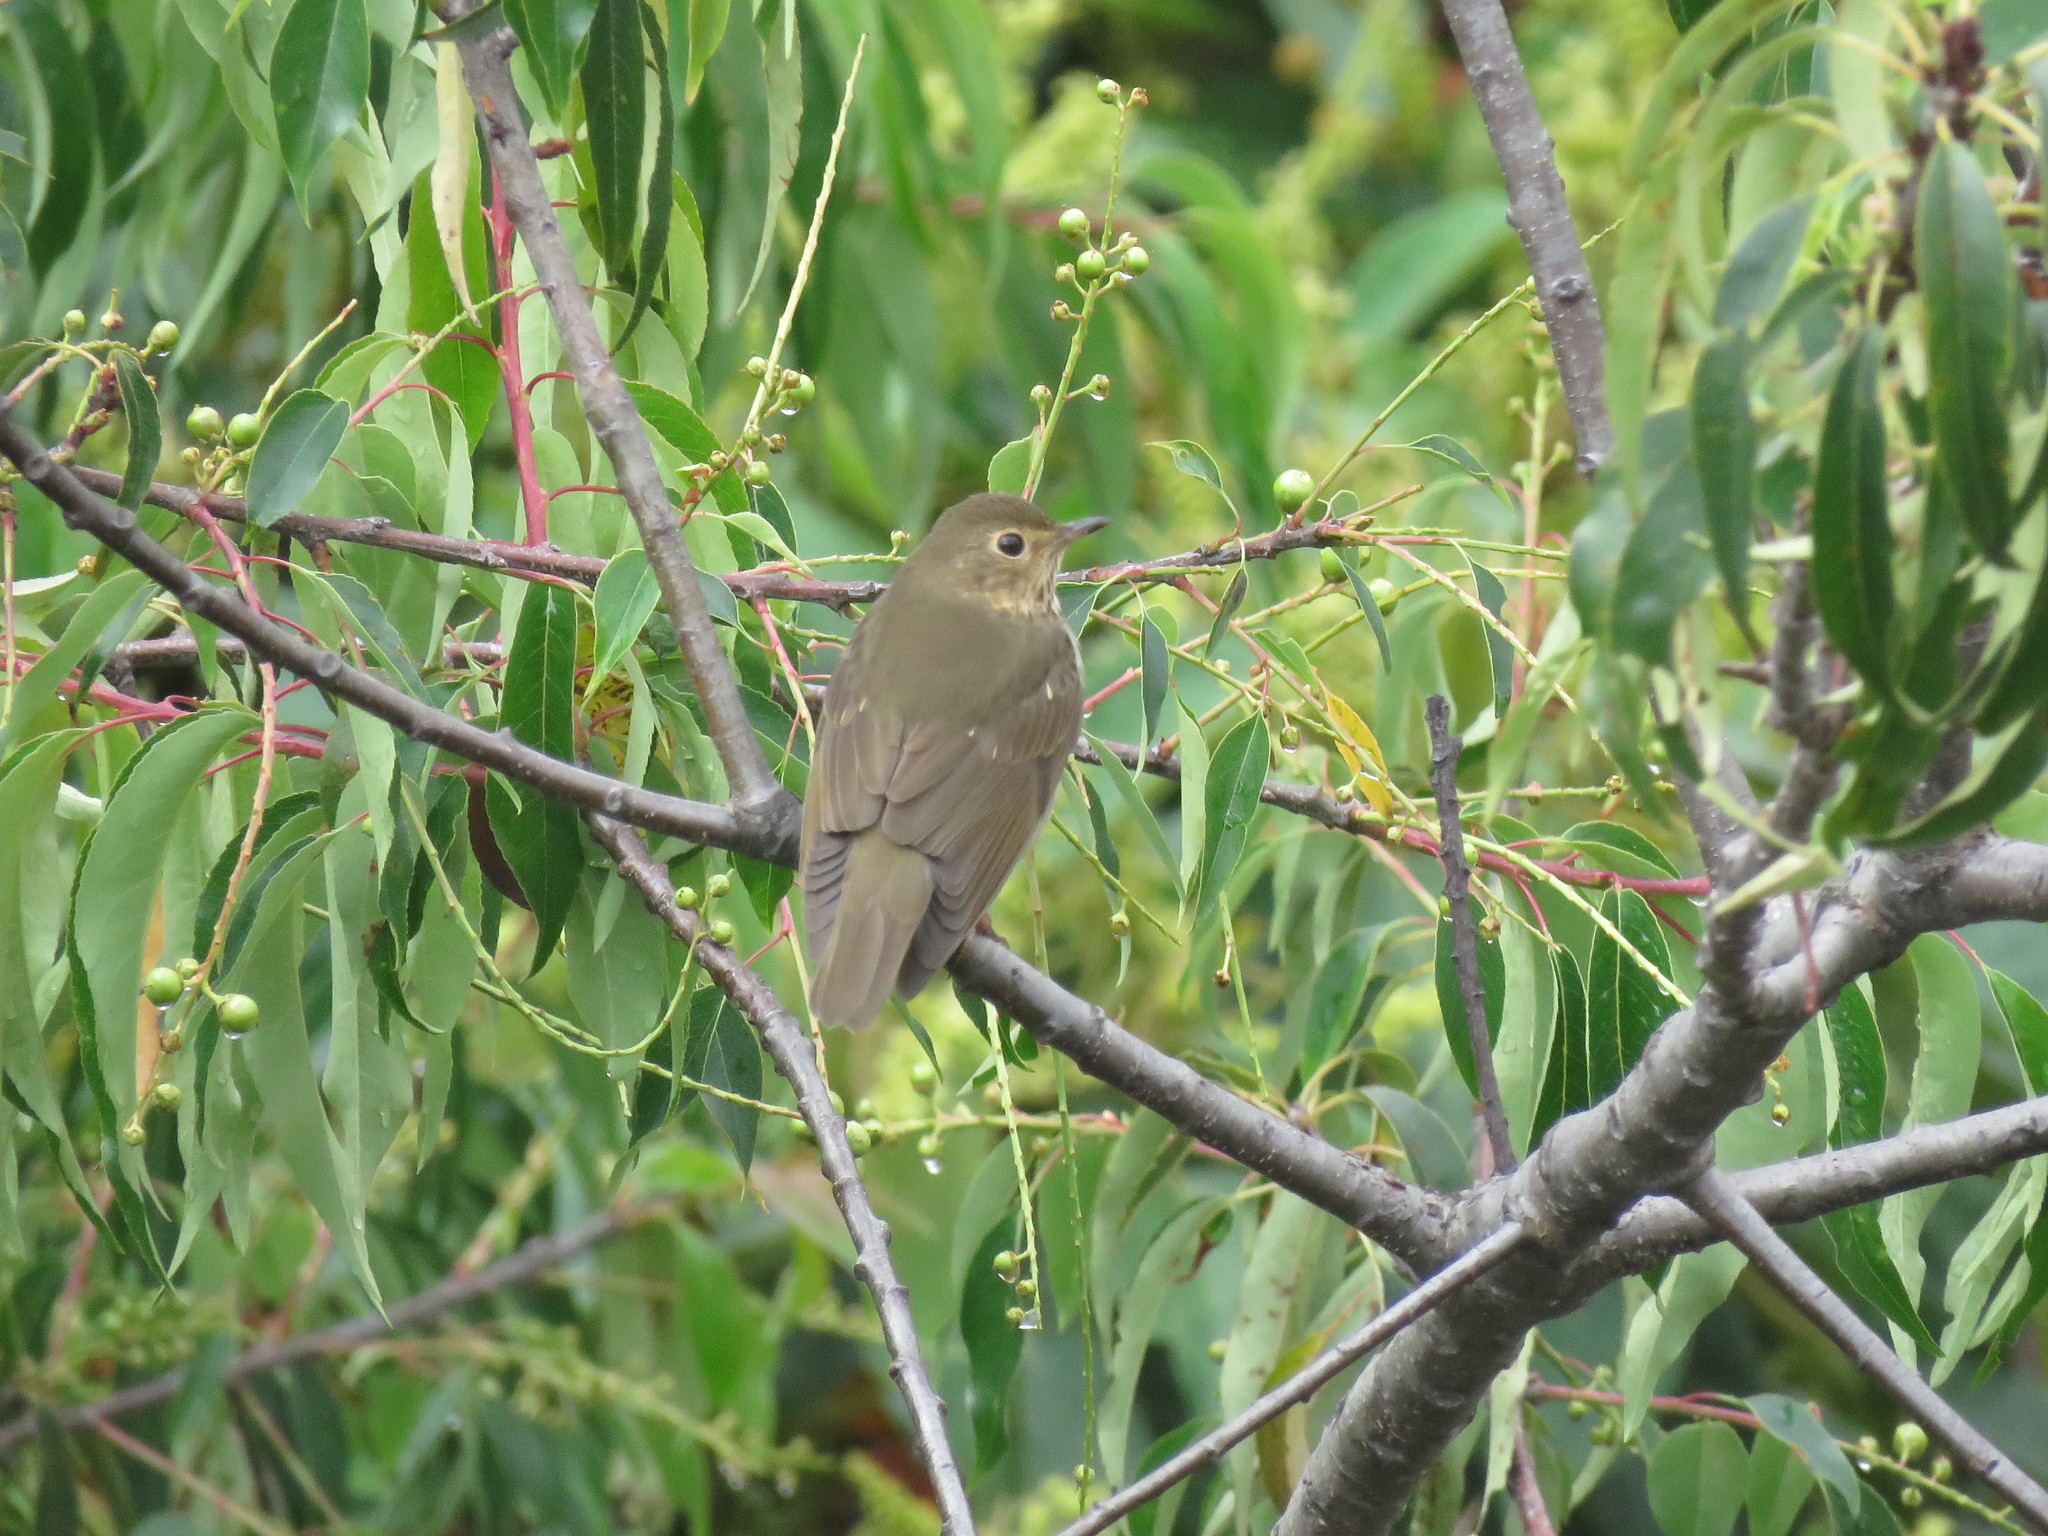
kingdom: Animalia
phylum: Chordata
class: Aves
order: Passeriformes
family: Turdidae
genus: Catharus
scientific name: Catharus ustulatus
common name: Swainson's thrush
